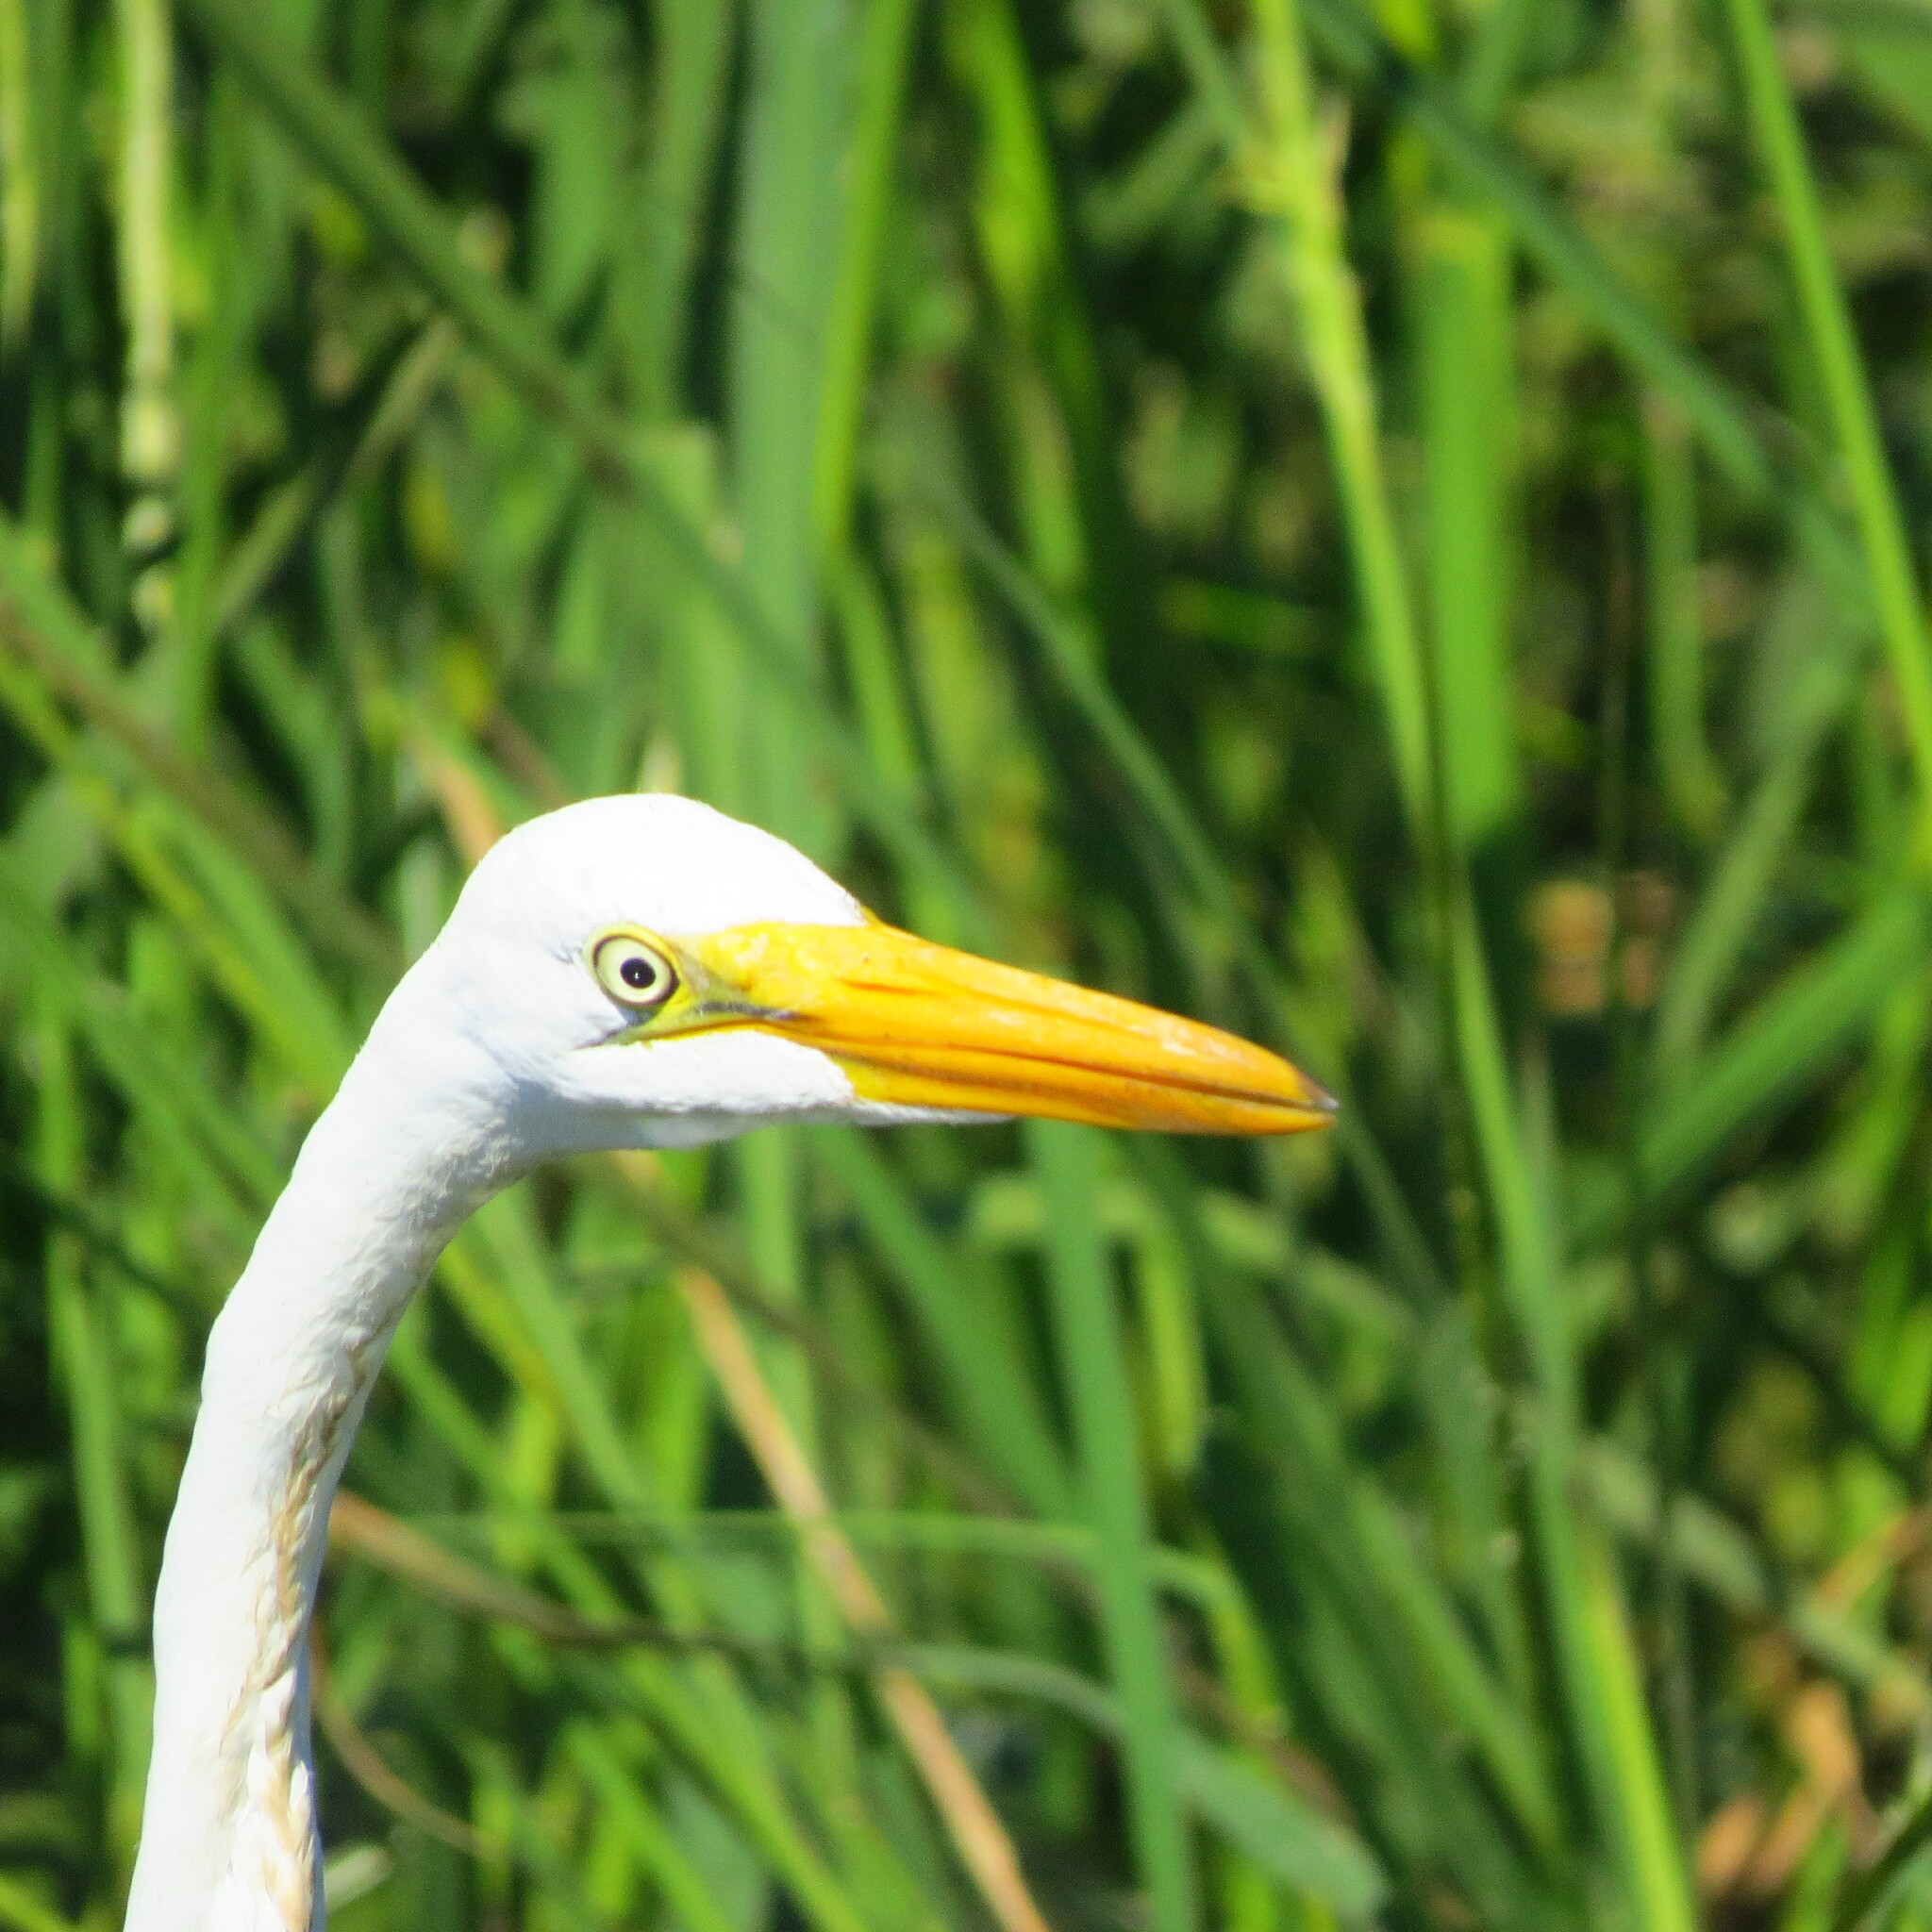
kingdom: Animalia
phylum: Chordata
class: Aves
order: Pelecaniformes
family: Ardeidae
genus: Ardea
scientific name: Ardea alba
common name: Great egret
